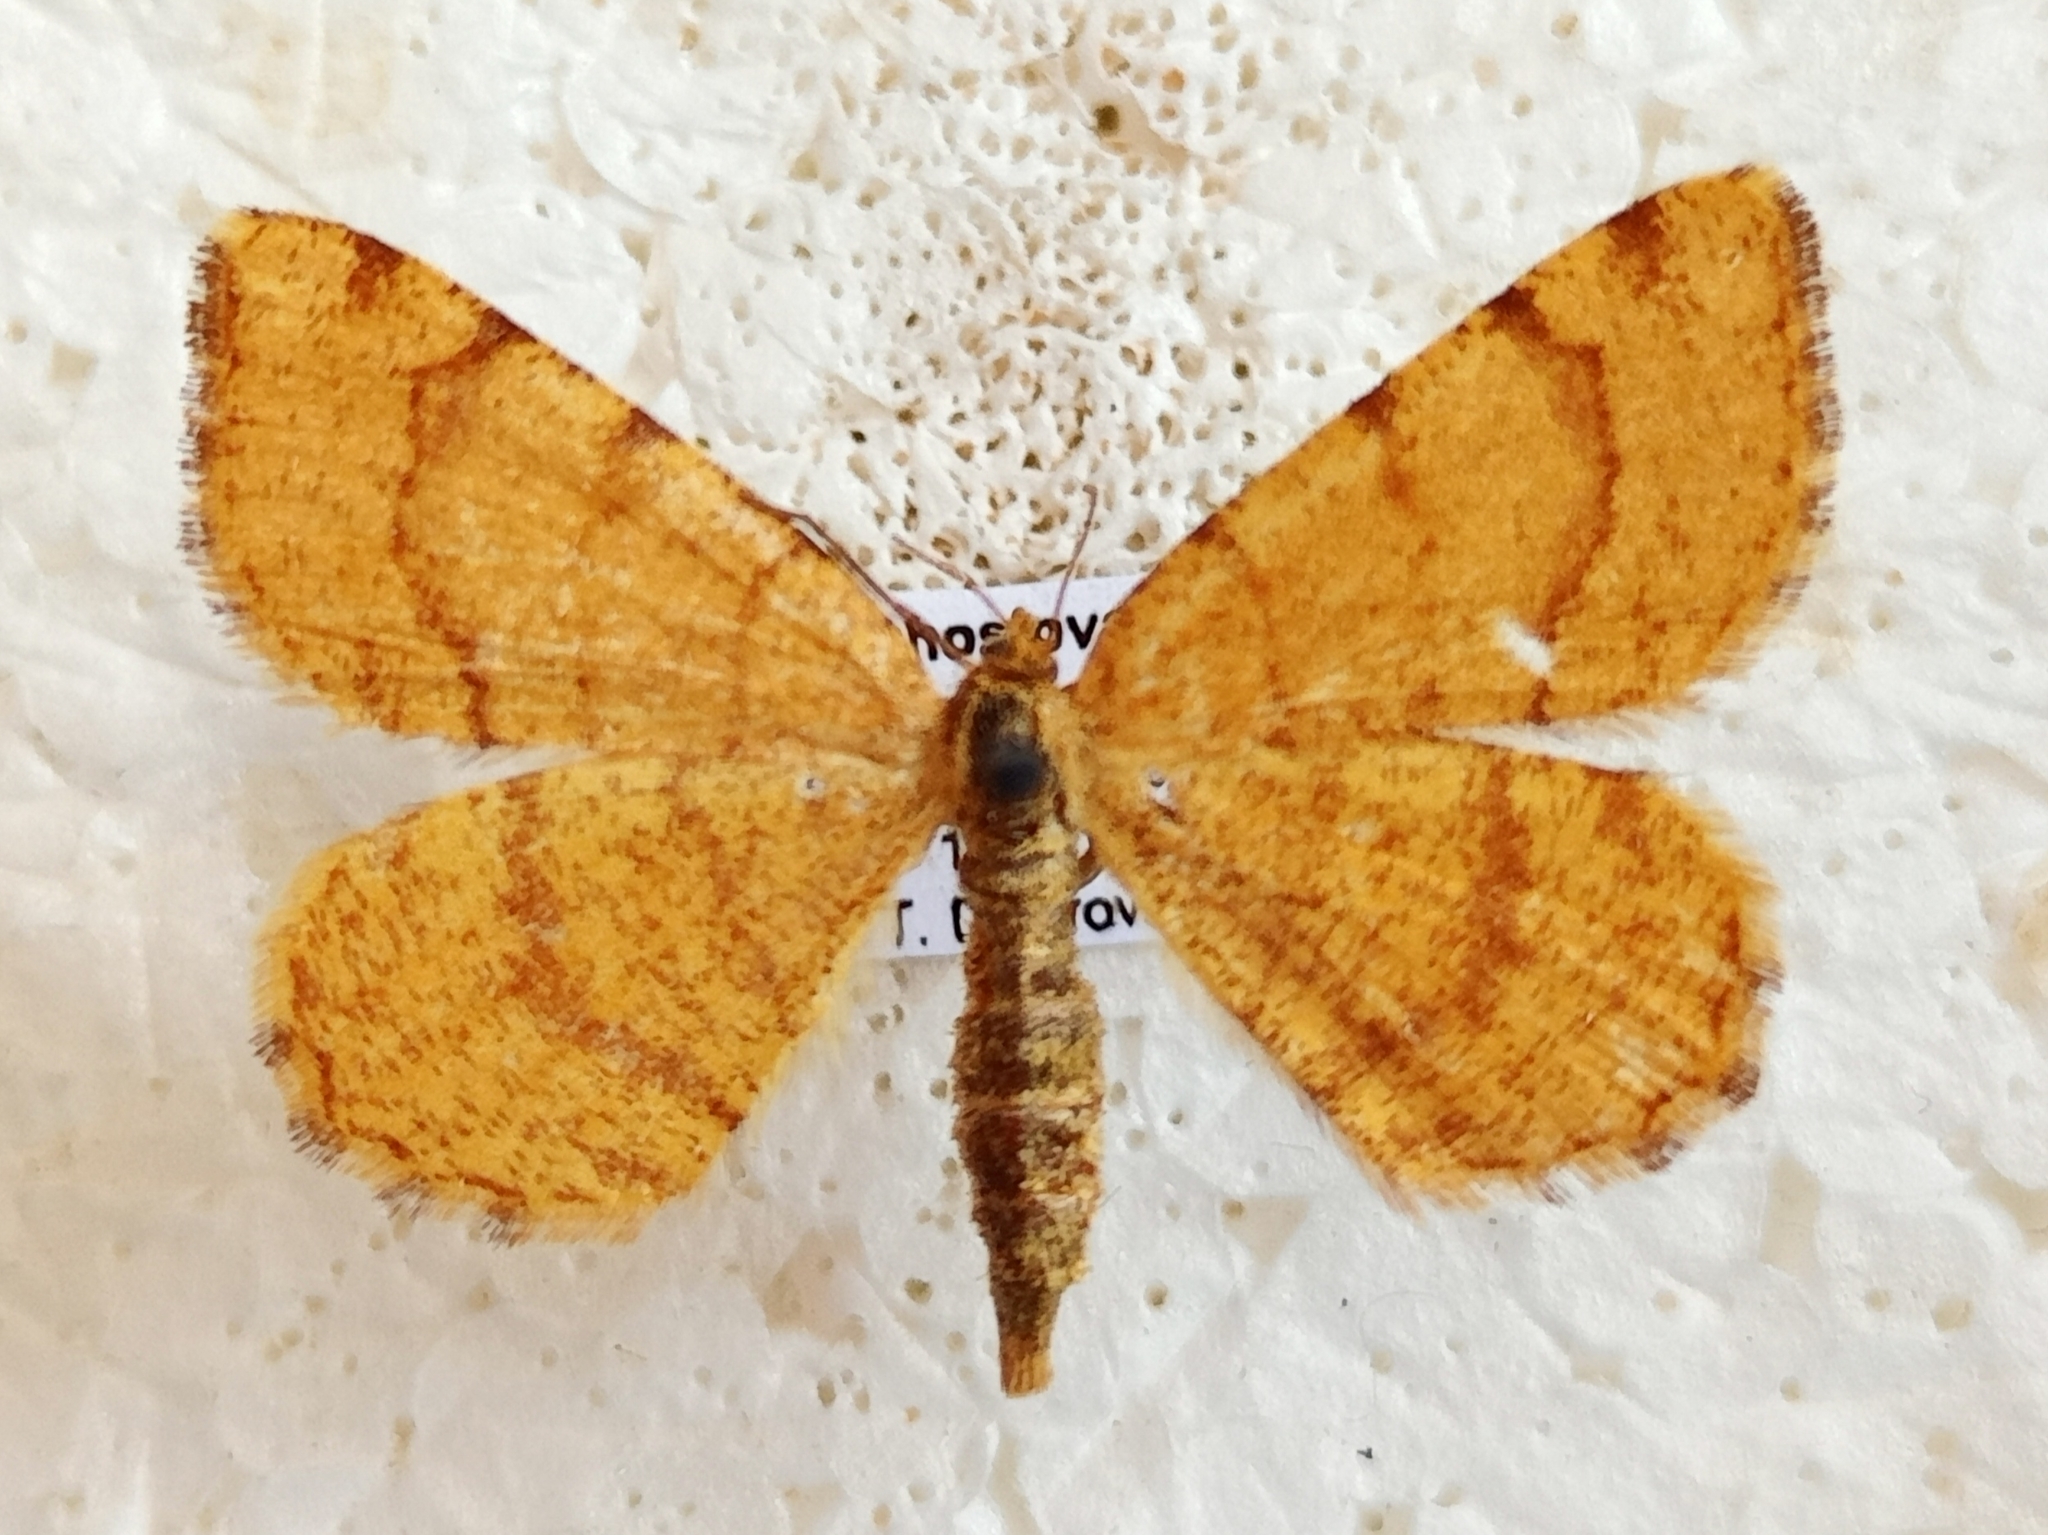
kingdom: Animalia
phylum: Arthropoda
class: Insecta
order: Lepidoptera
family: Geometridae
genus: Macaria
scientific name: Macaria brunneata
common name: Rannoch looper
